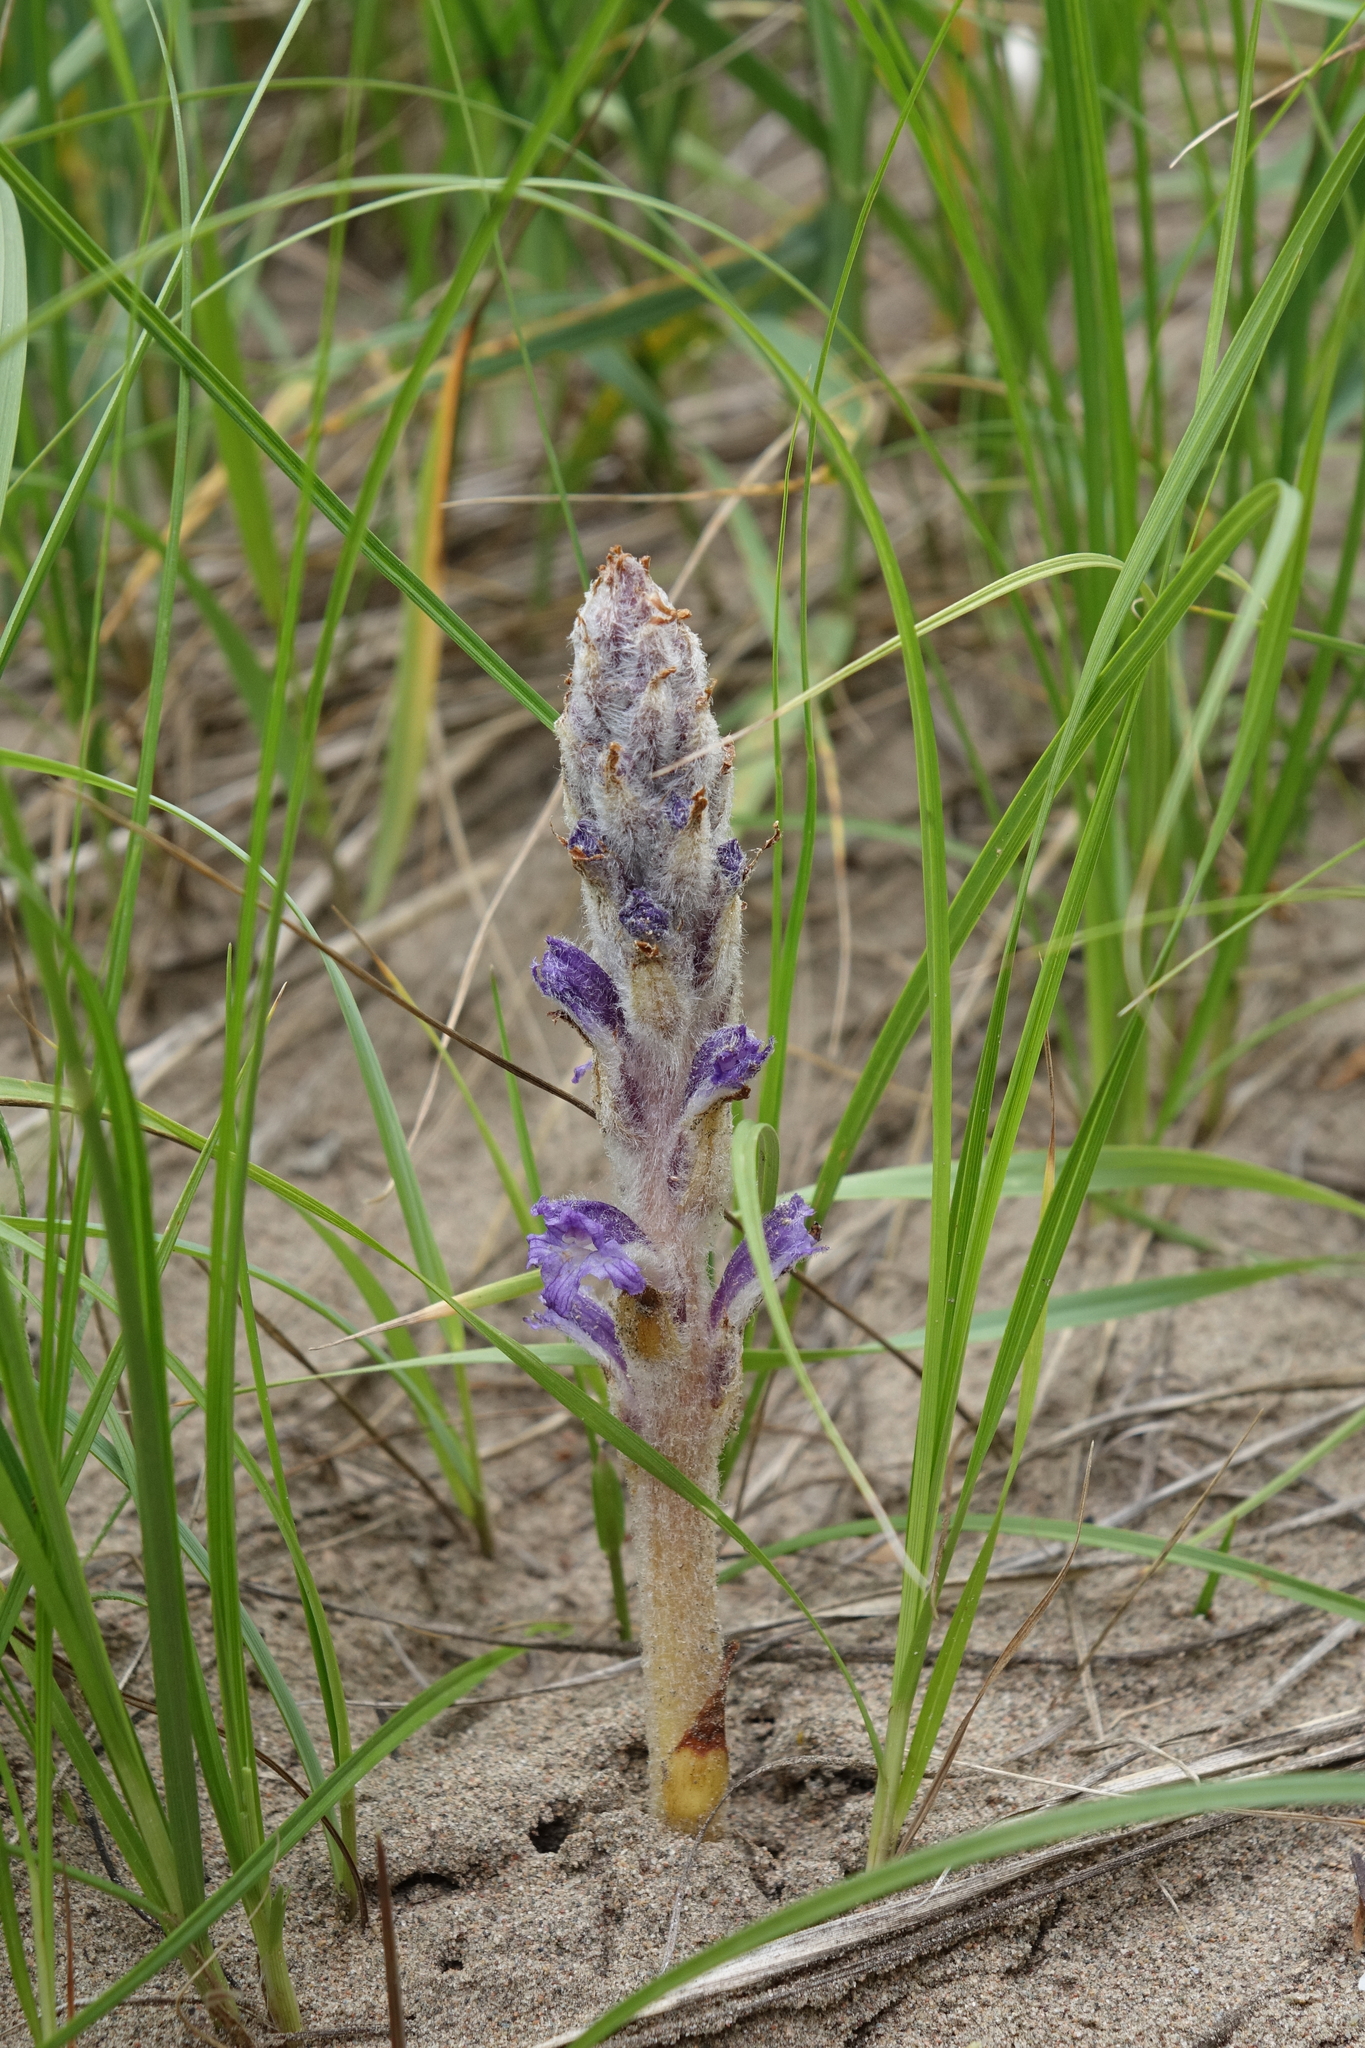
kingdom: Plantae
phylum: Tracheophyta
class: Magnoliopsida
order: Lamiales
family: Orobanchaceae
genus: Orobanche
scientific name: Orobanche coerulescens
